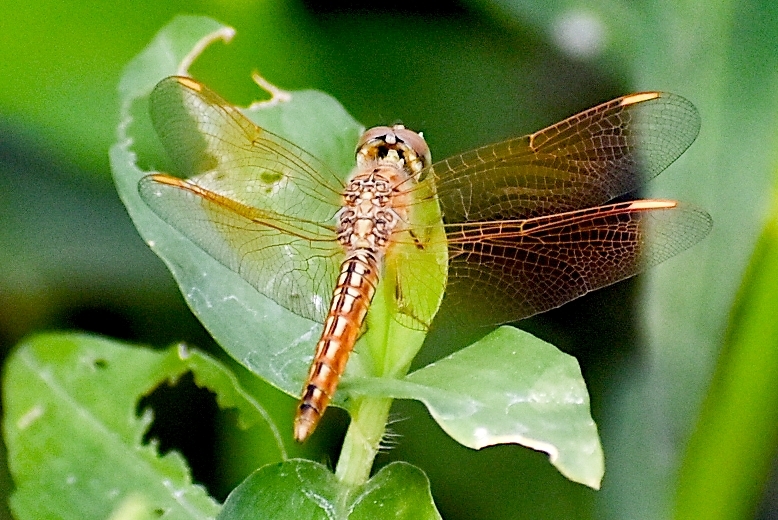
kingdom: Animalia
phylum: Arthropoda
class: Insecta
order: Odonata
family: Libellulidae
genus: Brachythemis
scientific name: Brachythemis contaminata
